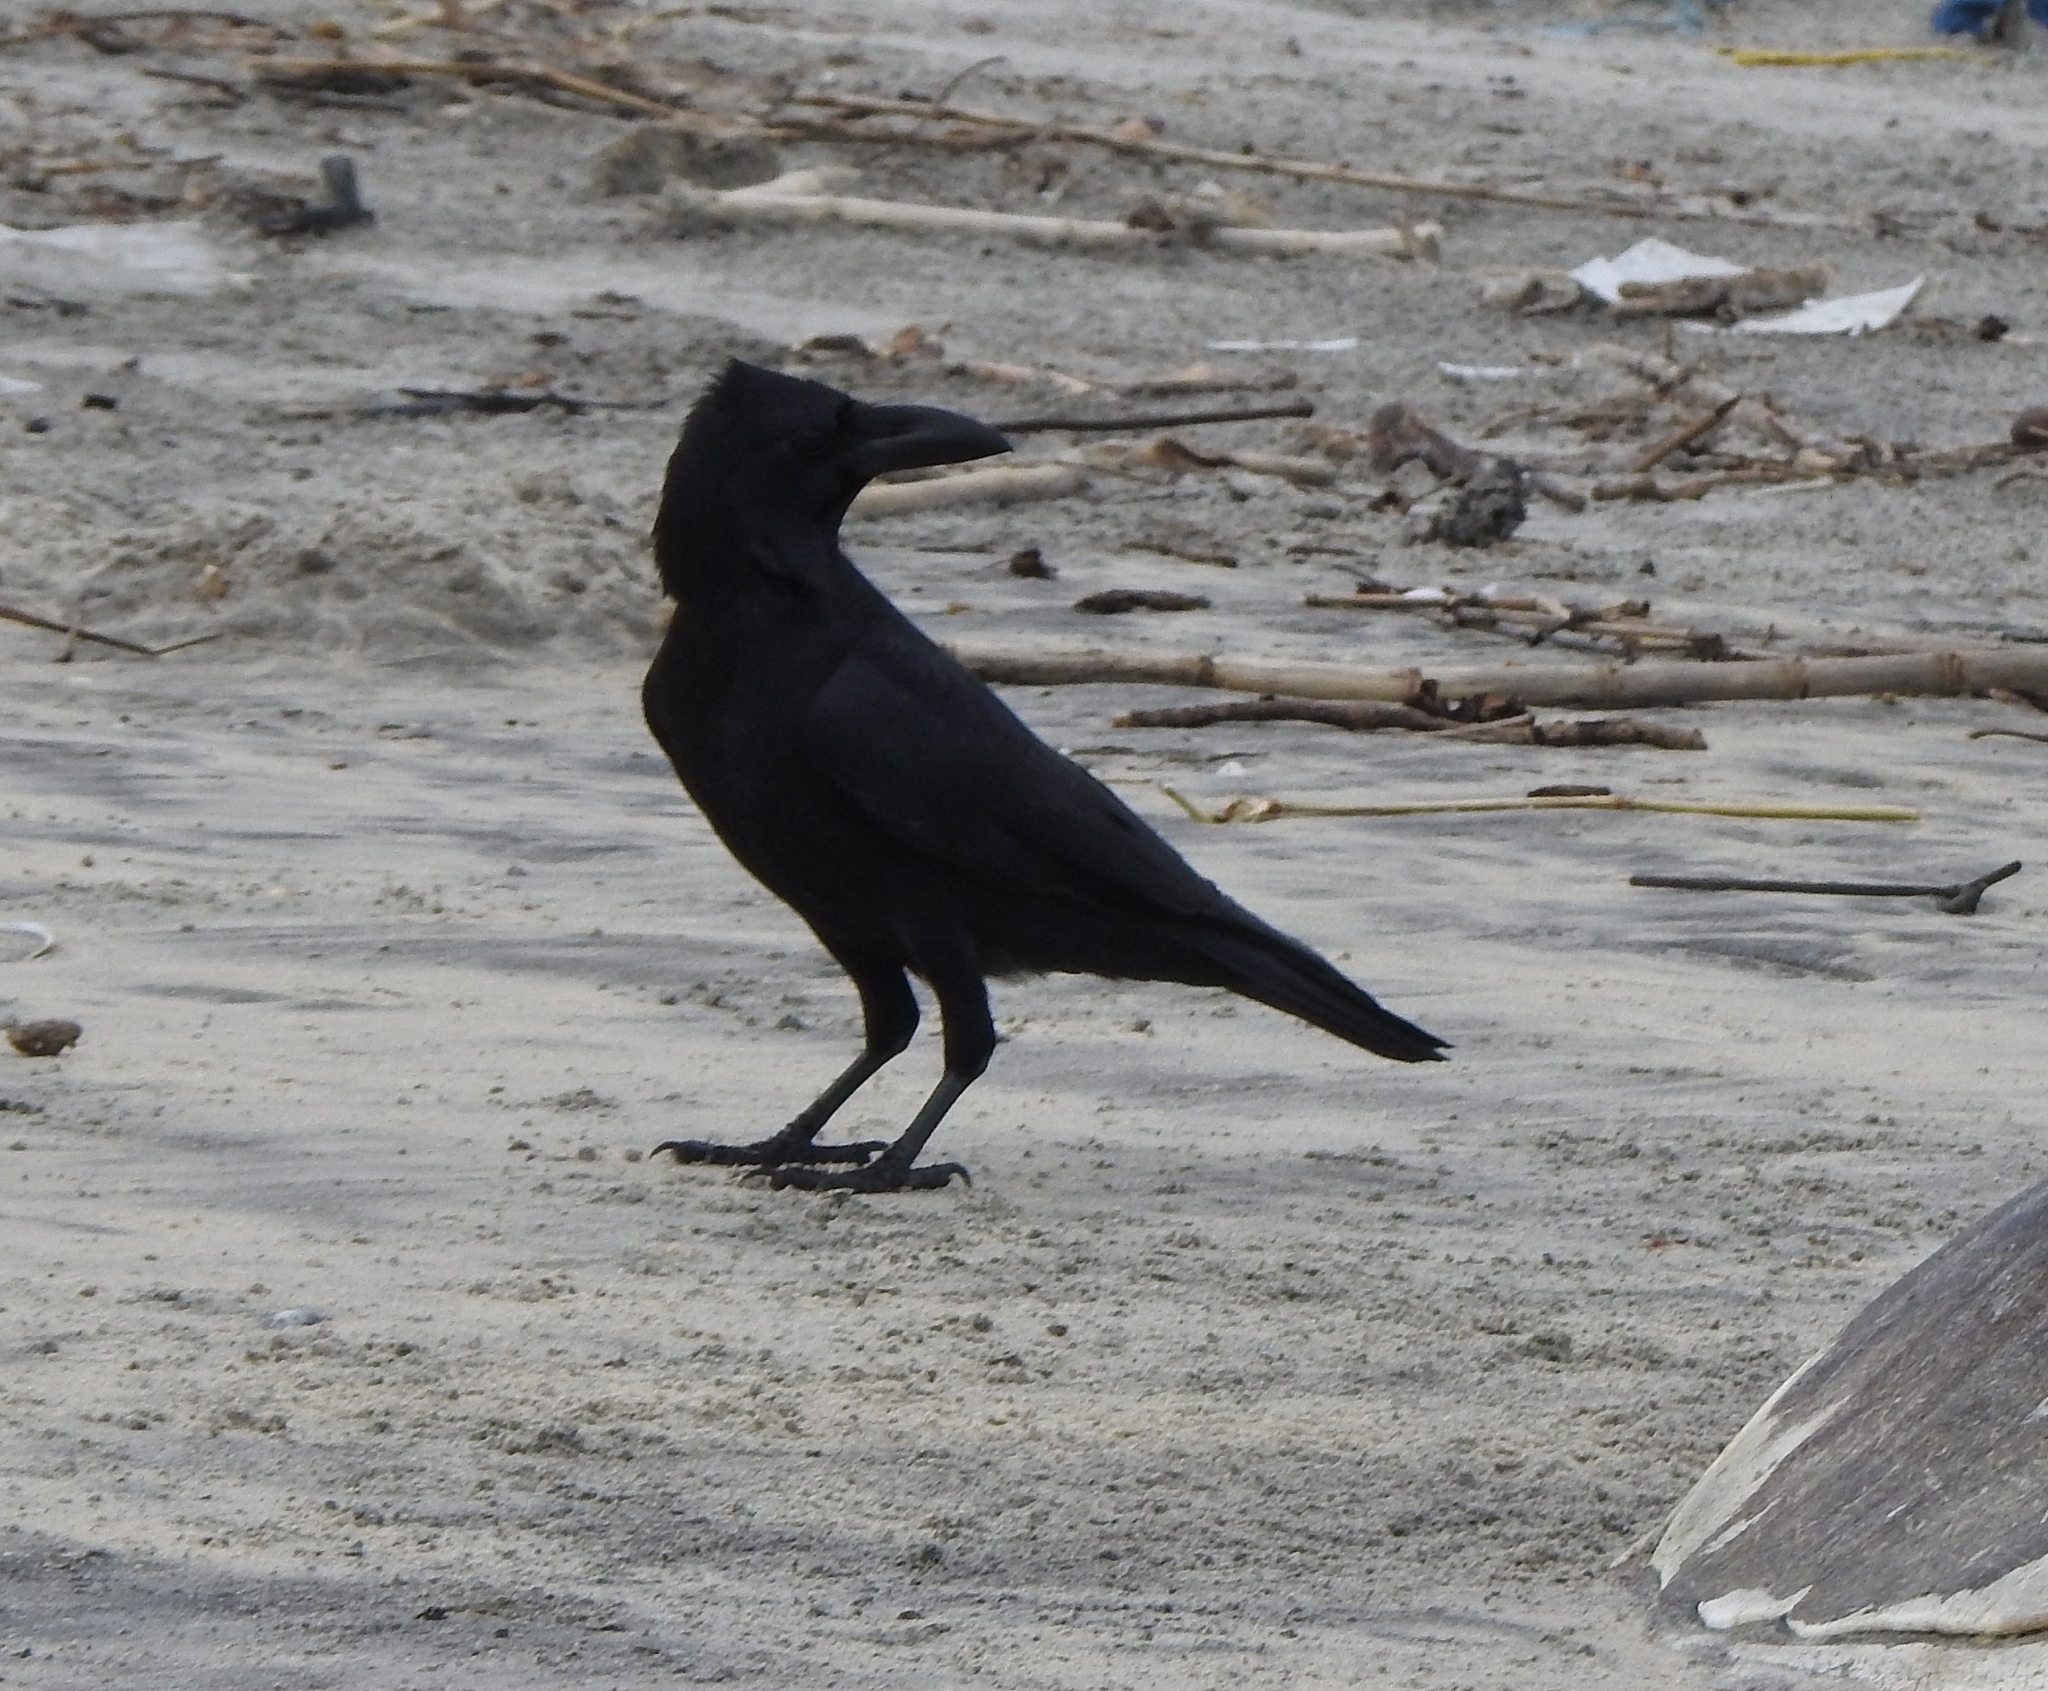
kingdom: Animalia
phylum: Chordata
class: Aves
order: Passeriformes
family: Corvidae
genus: Corvus
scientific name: Corvus macrorhynchos
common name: Large-billed crow
